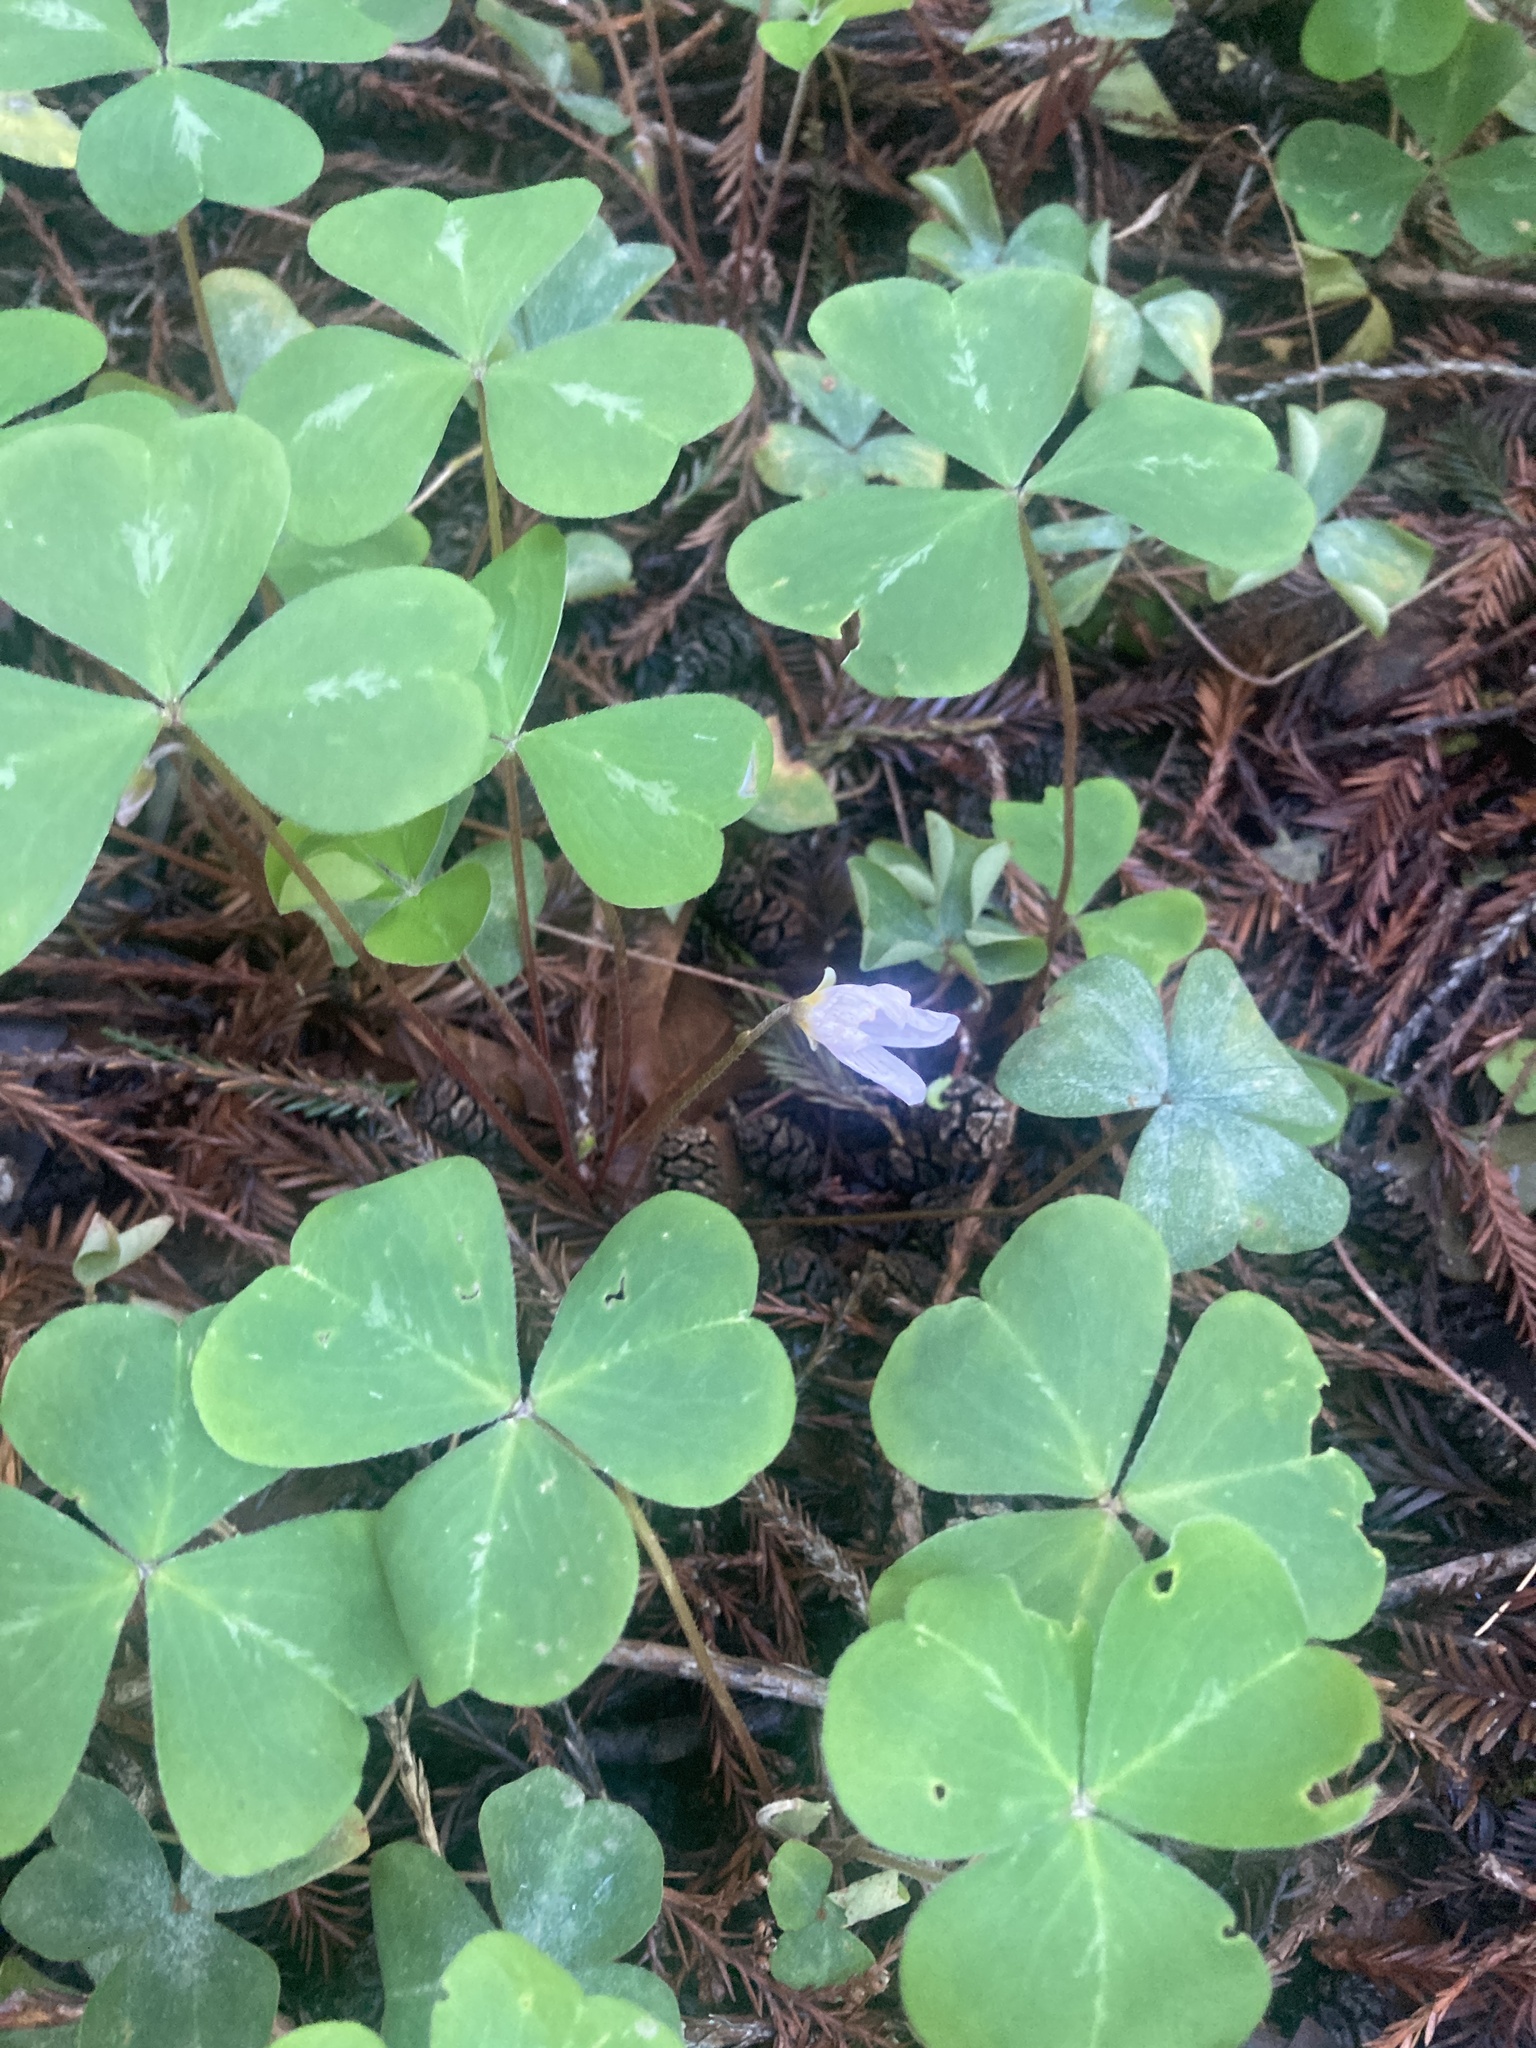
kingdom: Plantae
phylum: Tracheophyta
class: Magnoliopsida
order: Oxalidales
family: Oxalidaceae
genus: Oxalis
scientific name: Oxalis oregana
